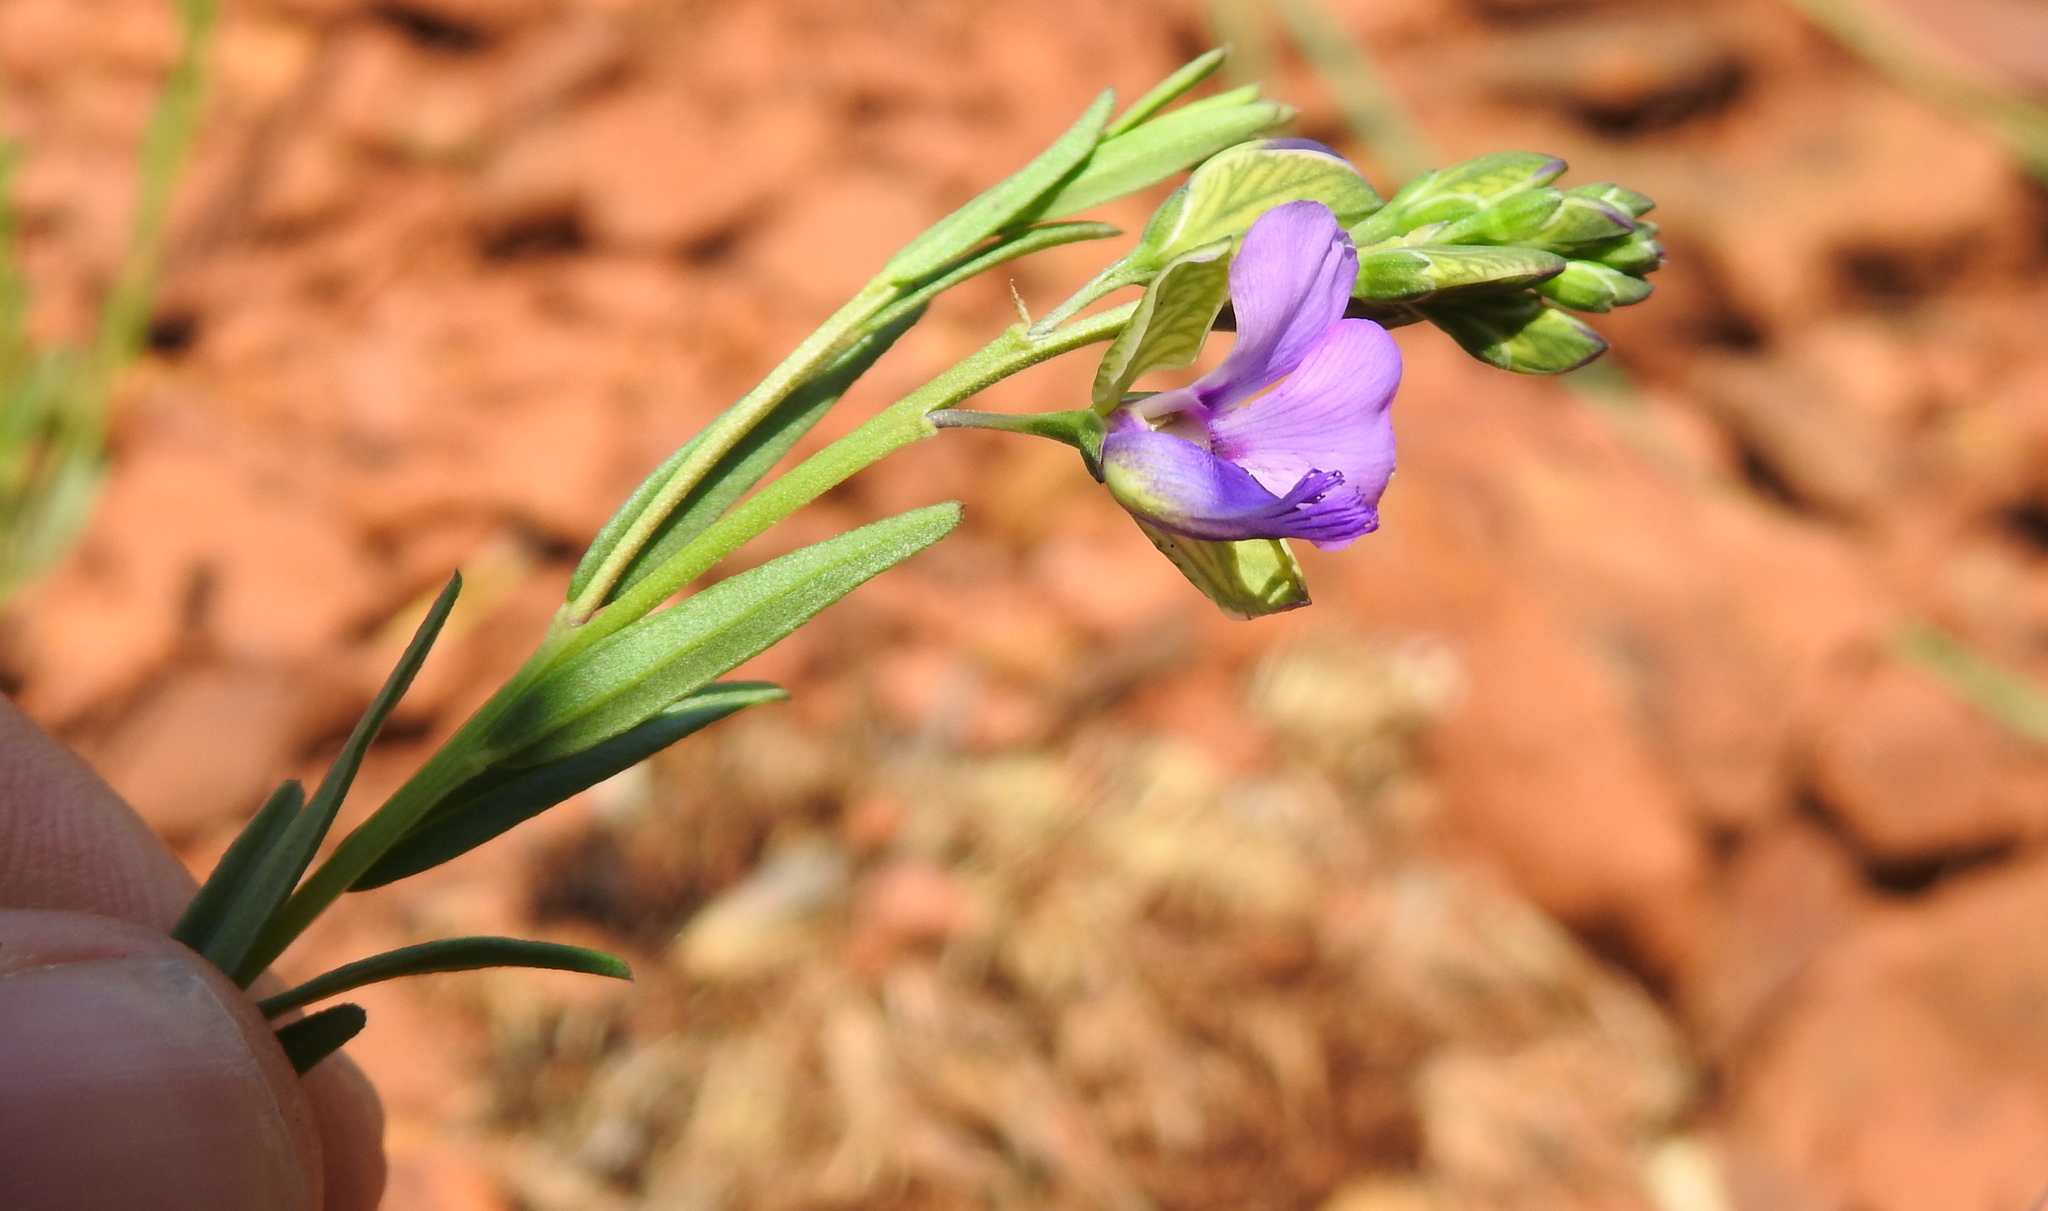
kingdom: Plantae
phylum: Tracheophyta
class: Magnoliopsida
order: Fabales
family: Polygalaceae
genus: Polygala
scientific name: Polygala rehmannii
